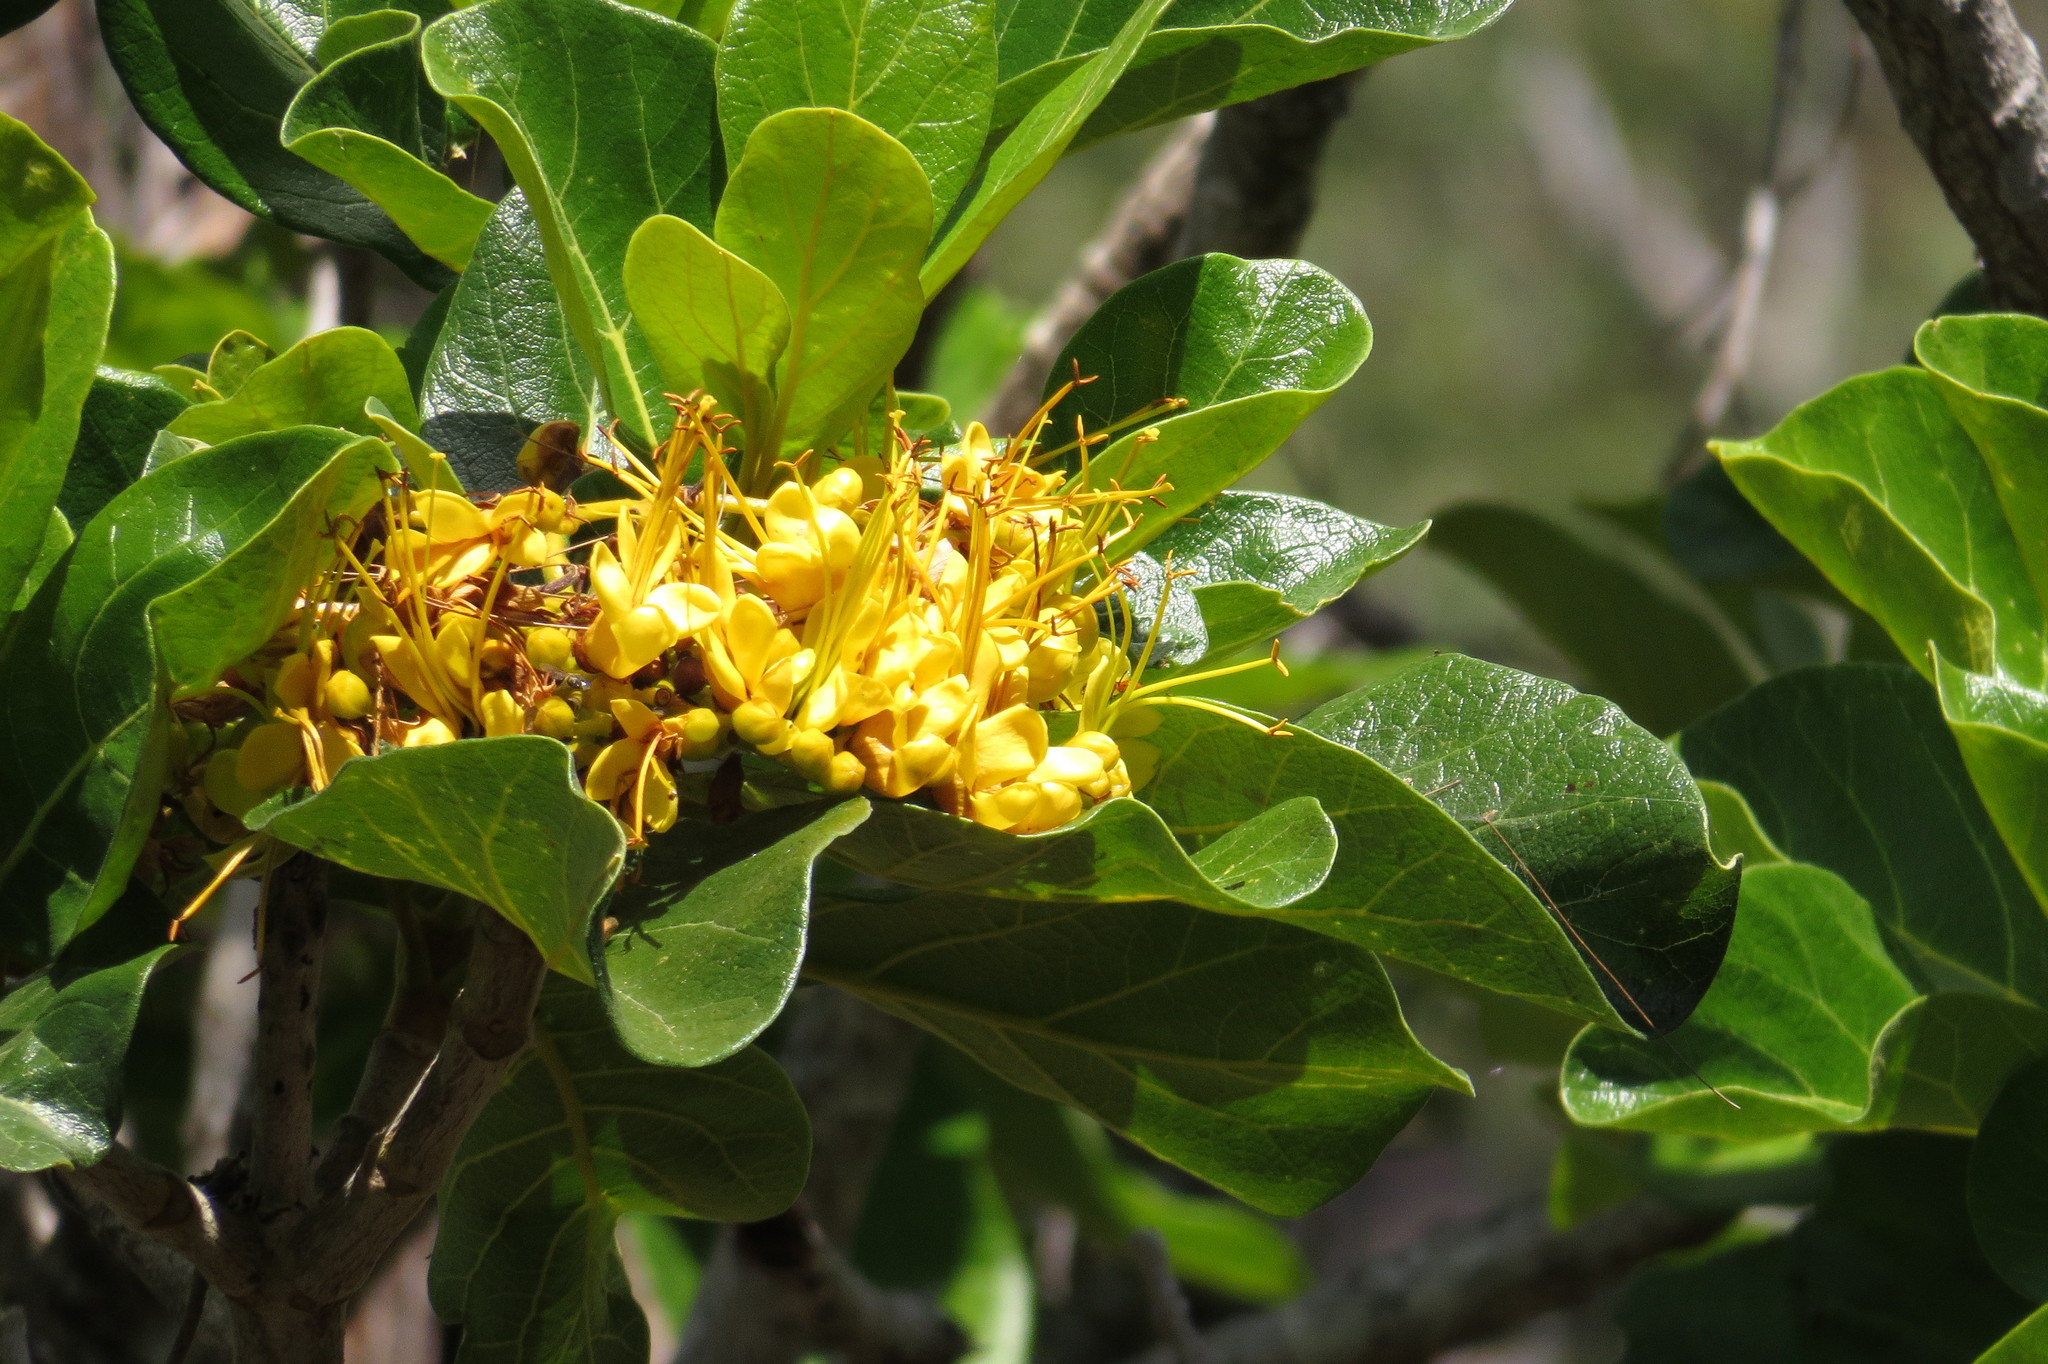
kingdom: Plantae
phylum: Tracheophyta
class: Magnoliopsida
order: Lamiales
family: Bignoniaceae
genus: Deplanchea
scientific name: Deplanchea tetraphylla
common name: Deplanchea
